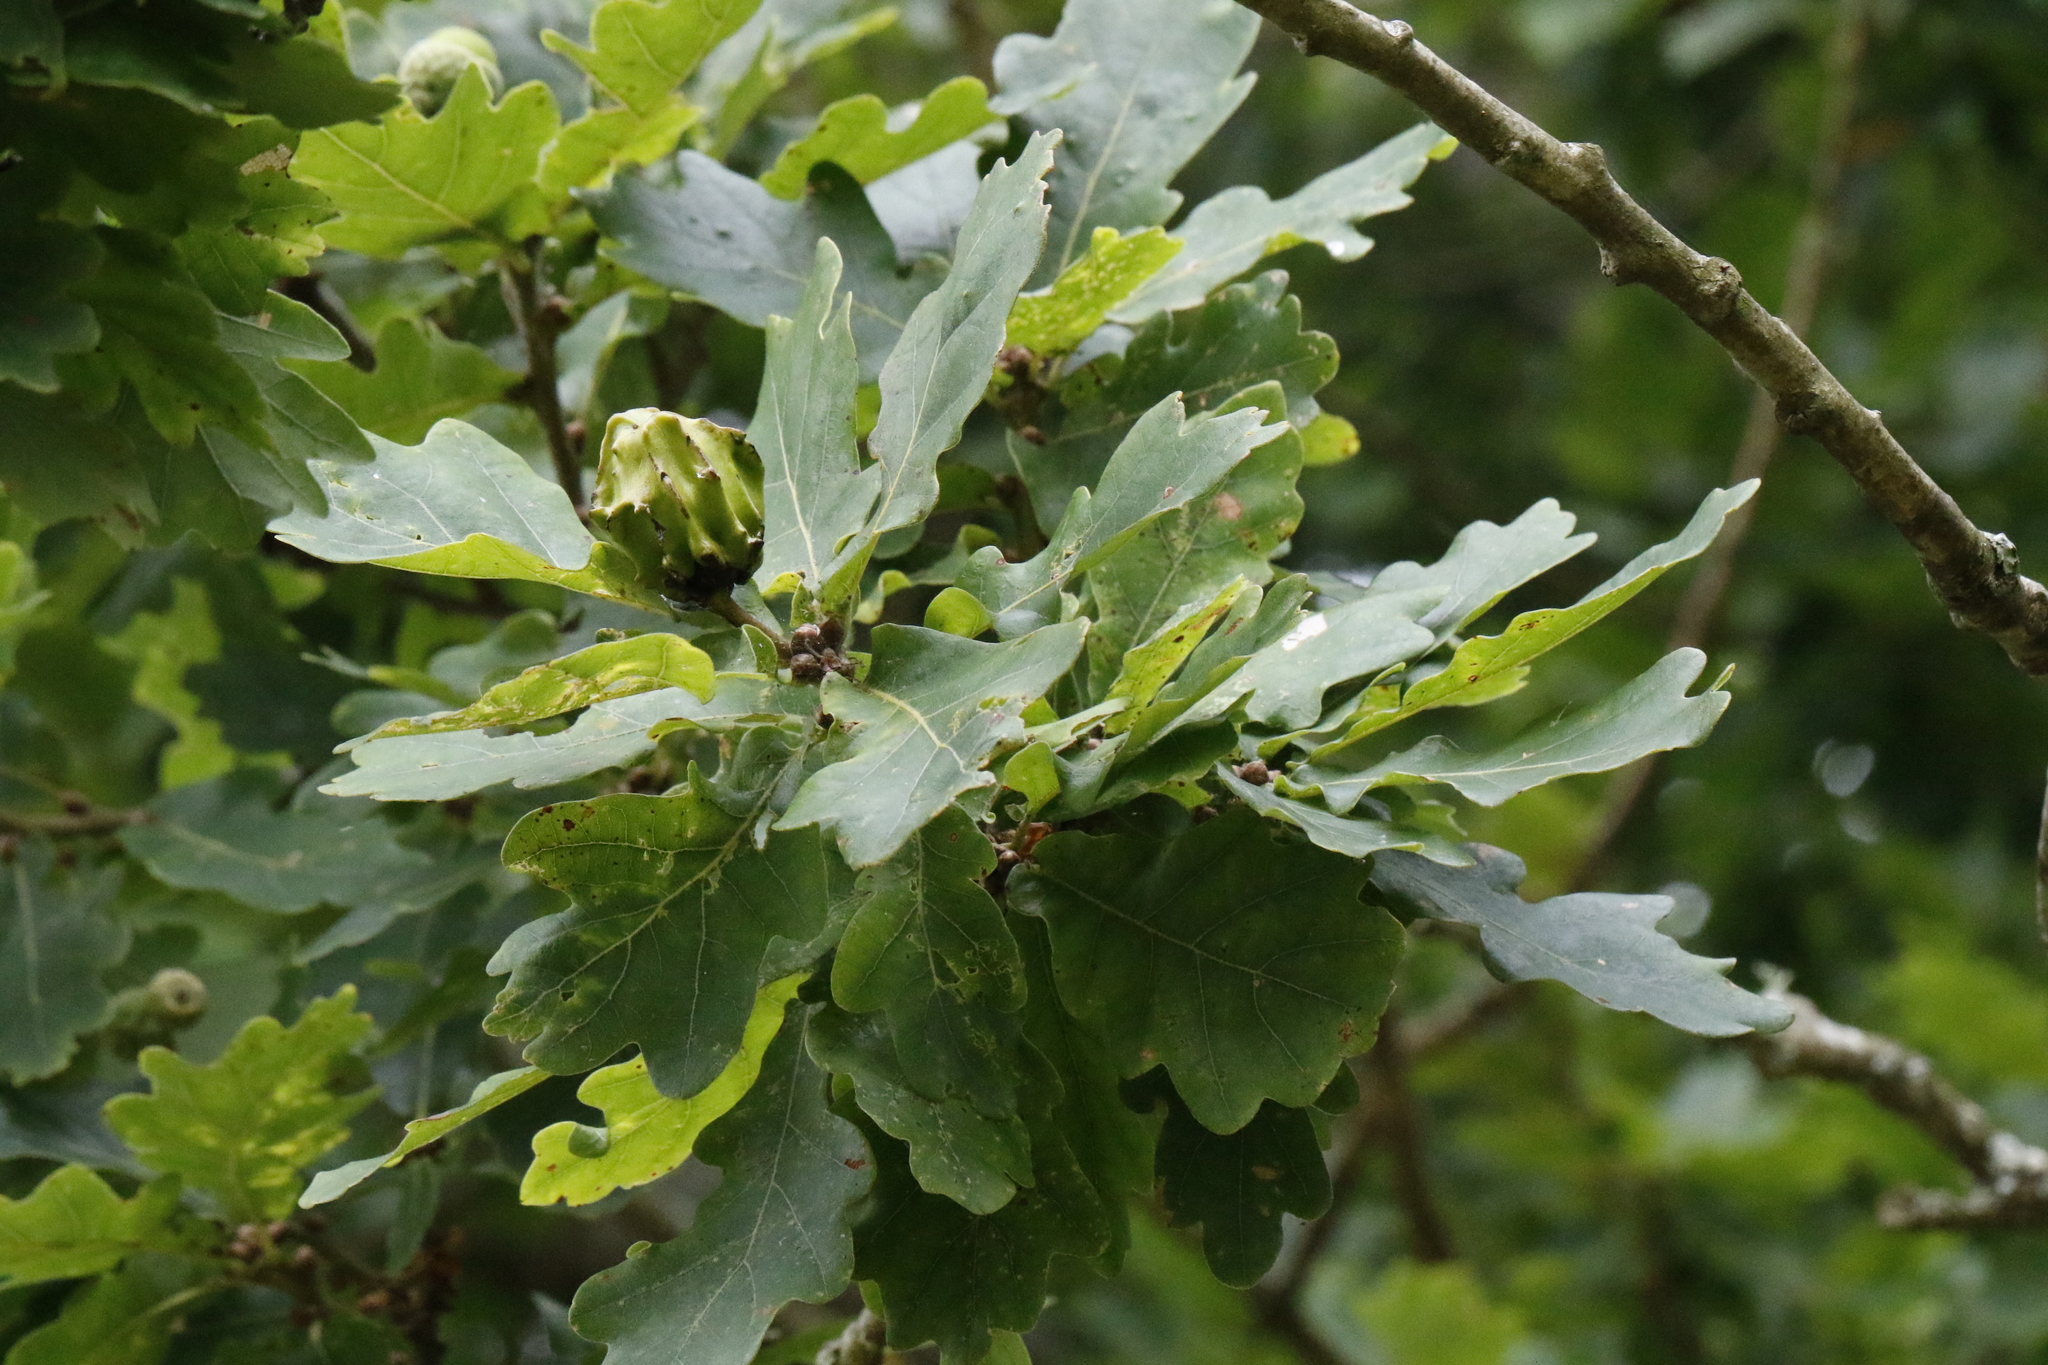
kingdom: Plantae
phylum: Tracheophyta
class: Magnoliopsida
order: Fagales
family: Fagaceae
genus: Quercus
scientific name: Quercus robur
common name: Pedunculate oak
